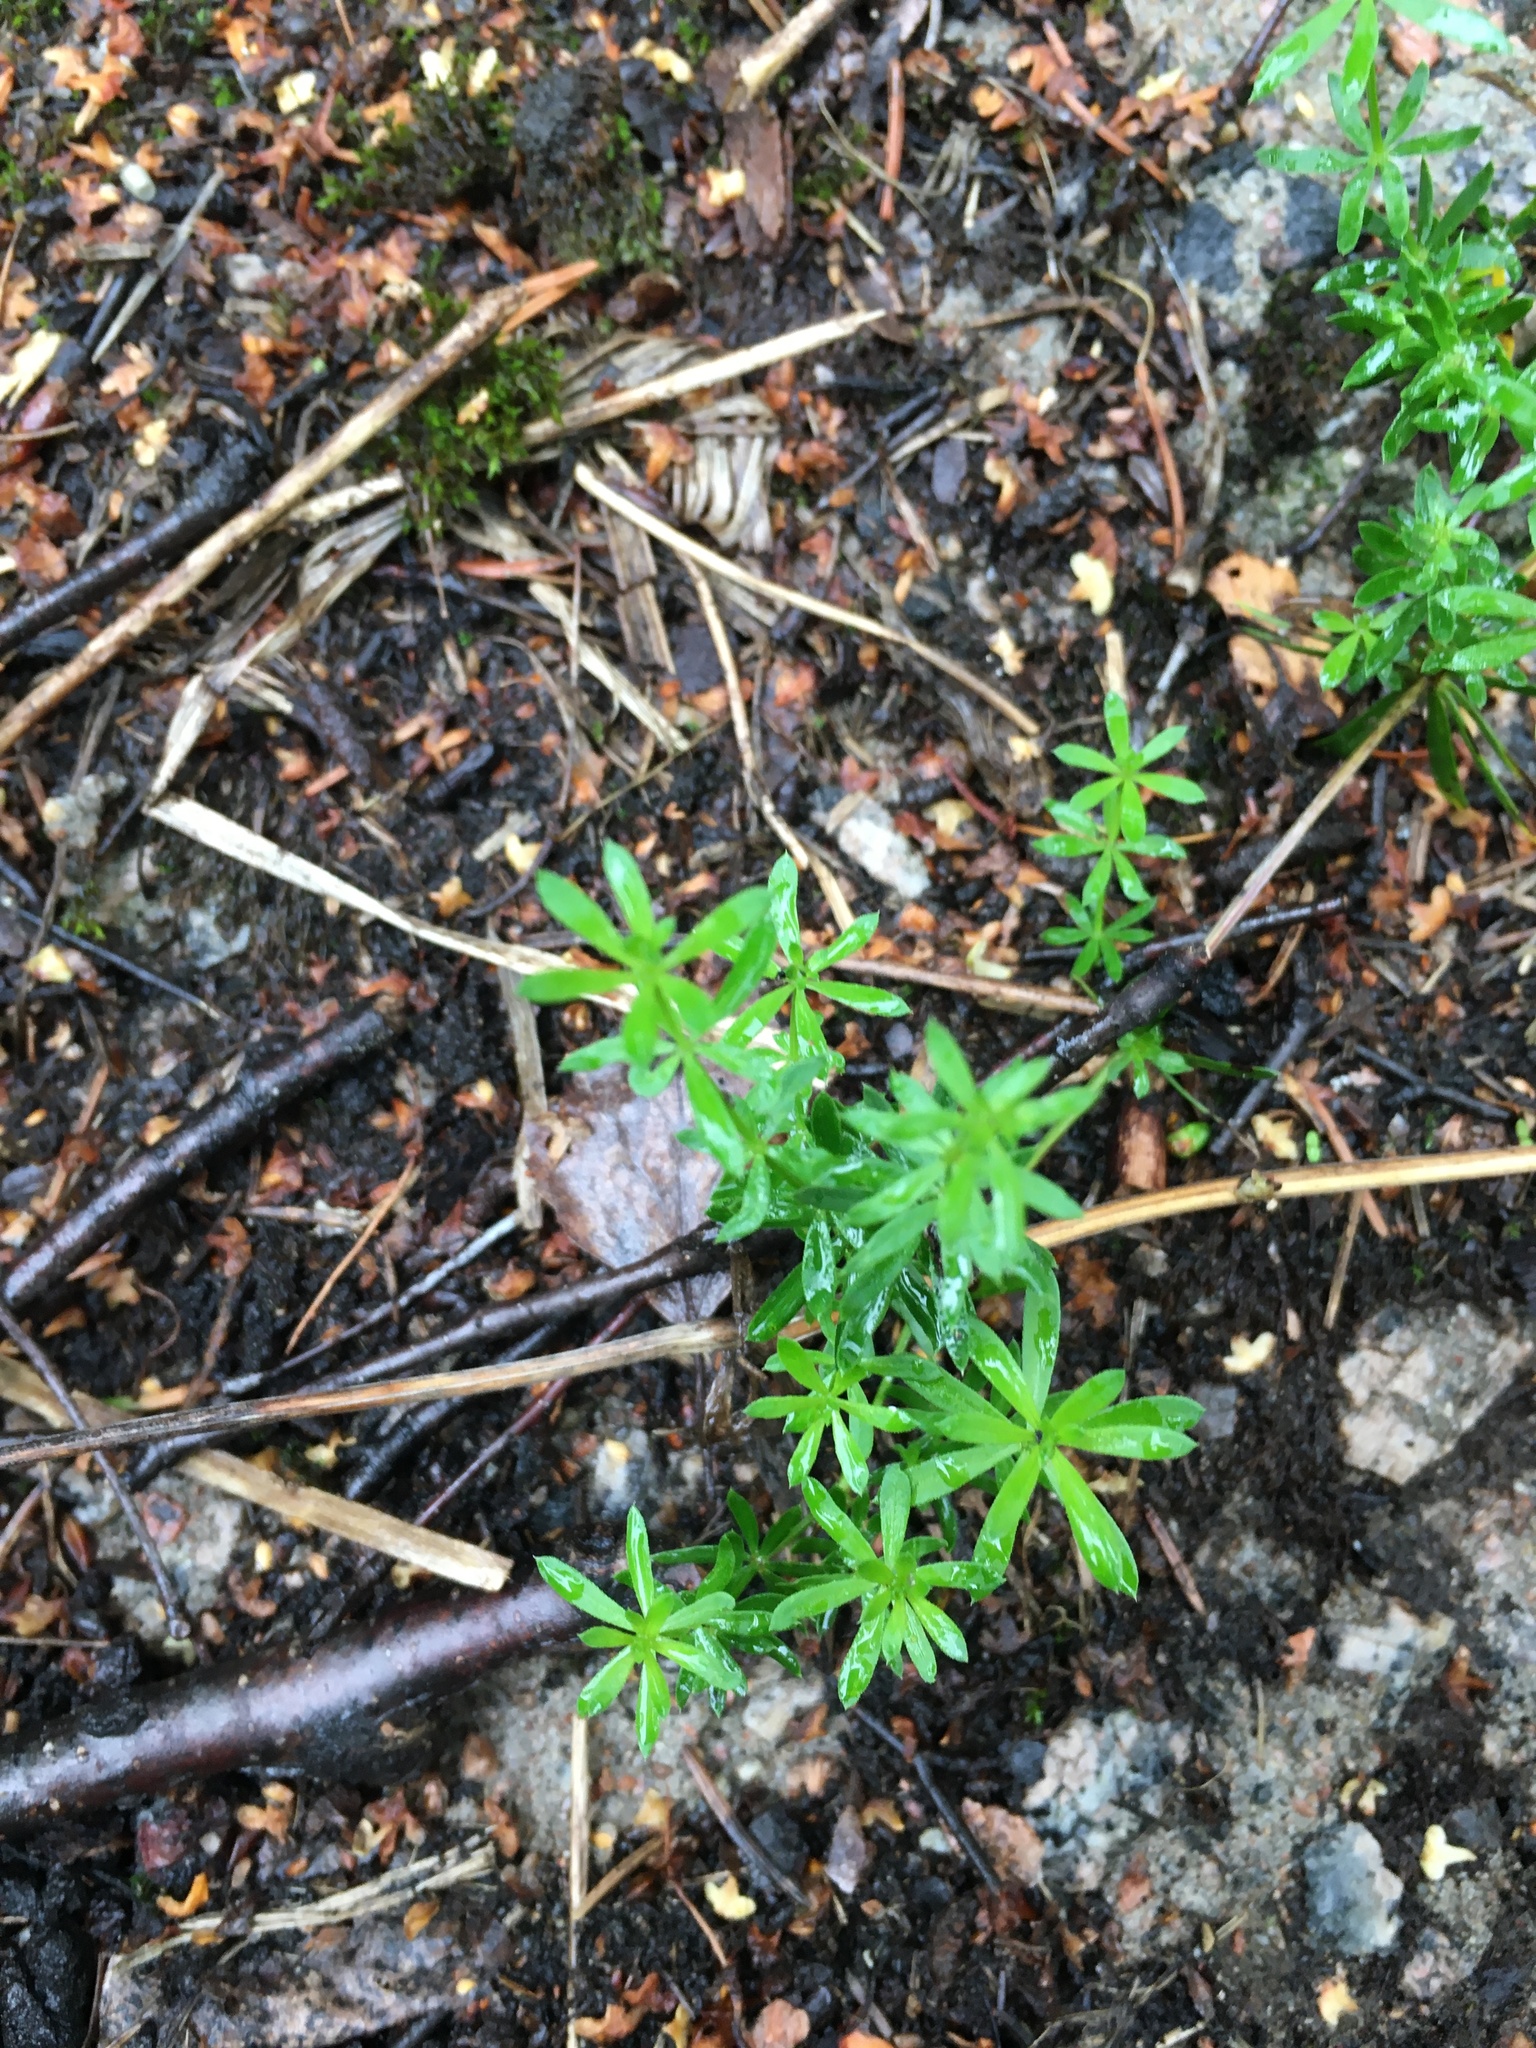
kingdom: Plantae
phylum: Tracheophyta
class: Magnoliopsida
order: Gentianales
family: Rubiaceae
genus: Galium
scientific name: Galium mollugo
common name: Hedge bedstraw
